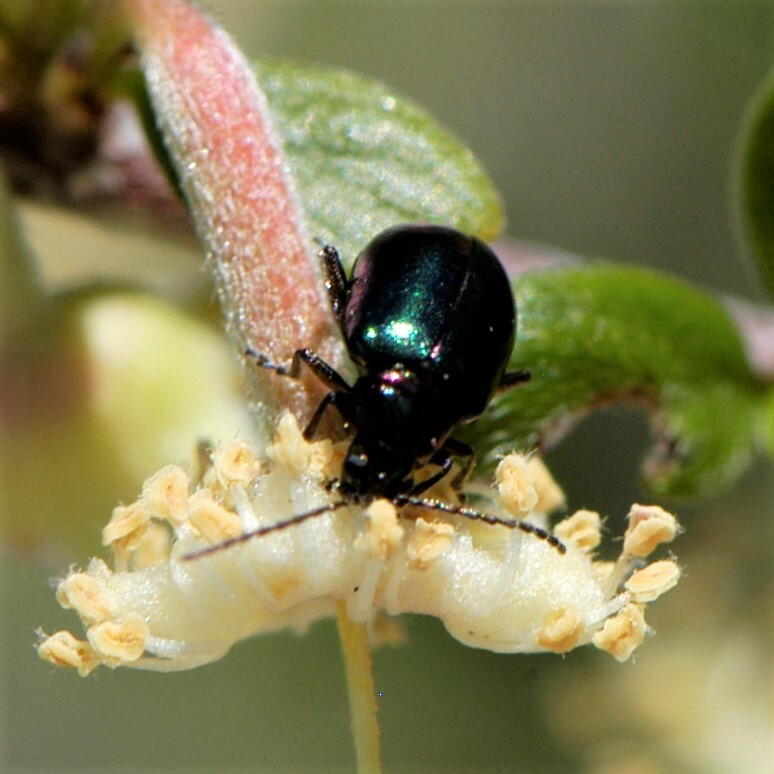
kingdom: Animalia
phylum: Arthropoda
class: Insecta
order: Coleoptera
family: Chrysomelidae
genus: Altica
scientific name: Altica torquata
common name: Leaf beetle
